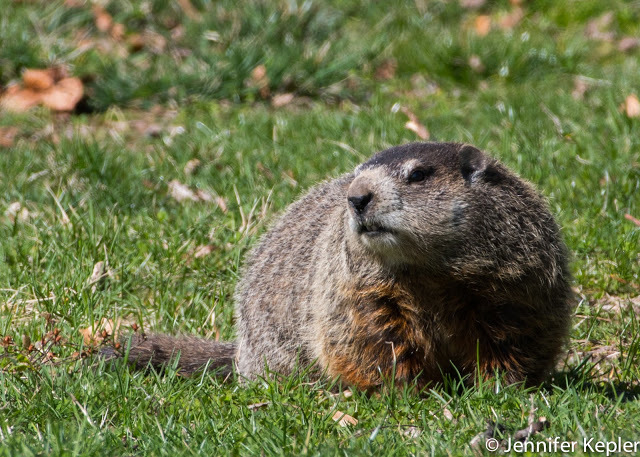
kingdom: Animalia
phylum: Chordata
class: Mammalia
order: Rodentia
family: Sciuridae
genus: Marmota
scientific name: Marmota monax
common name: Groundhog
